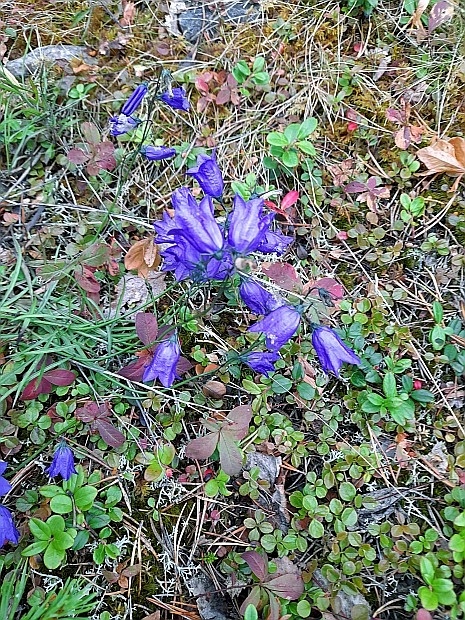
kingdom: Plantae
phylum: Tracheophyta
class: Magnoliopsida
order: Asterales
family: Campanulaceae
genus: Campanula
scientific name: Campanula rotundifolia
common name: Harebell
